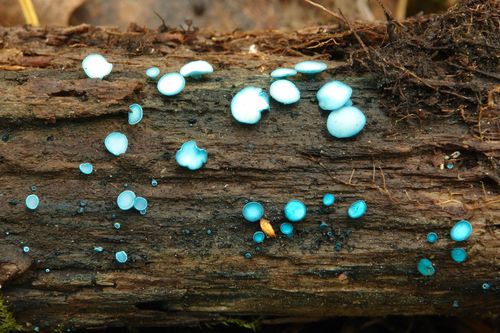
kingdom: Fungi
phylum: Ascomycota
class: Leotiomycetes
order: Helotiales
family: Chlorociboriaceae
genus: Chlorociboria
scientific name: Chlorociboria aeruginosa
